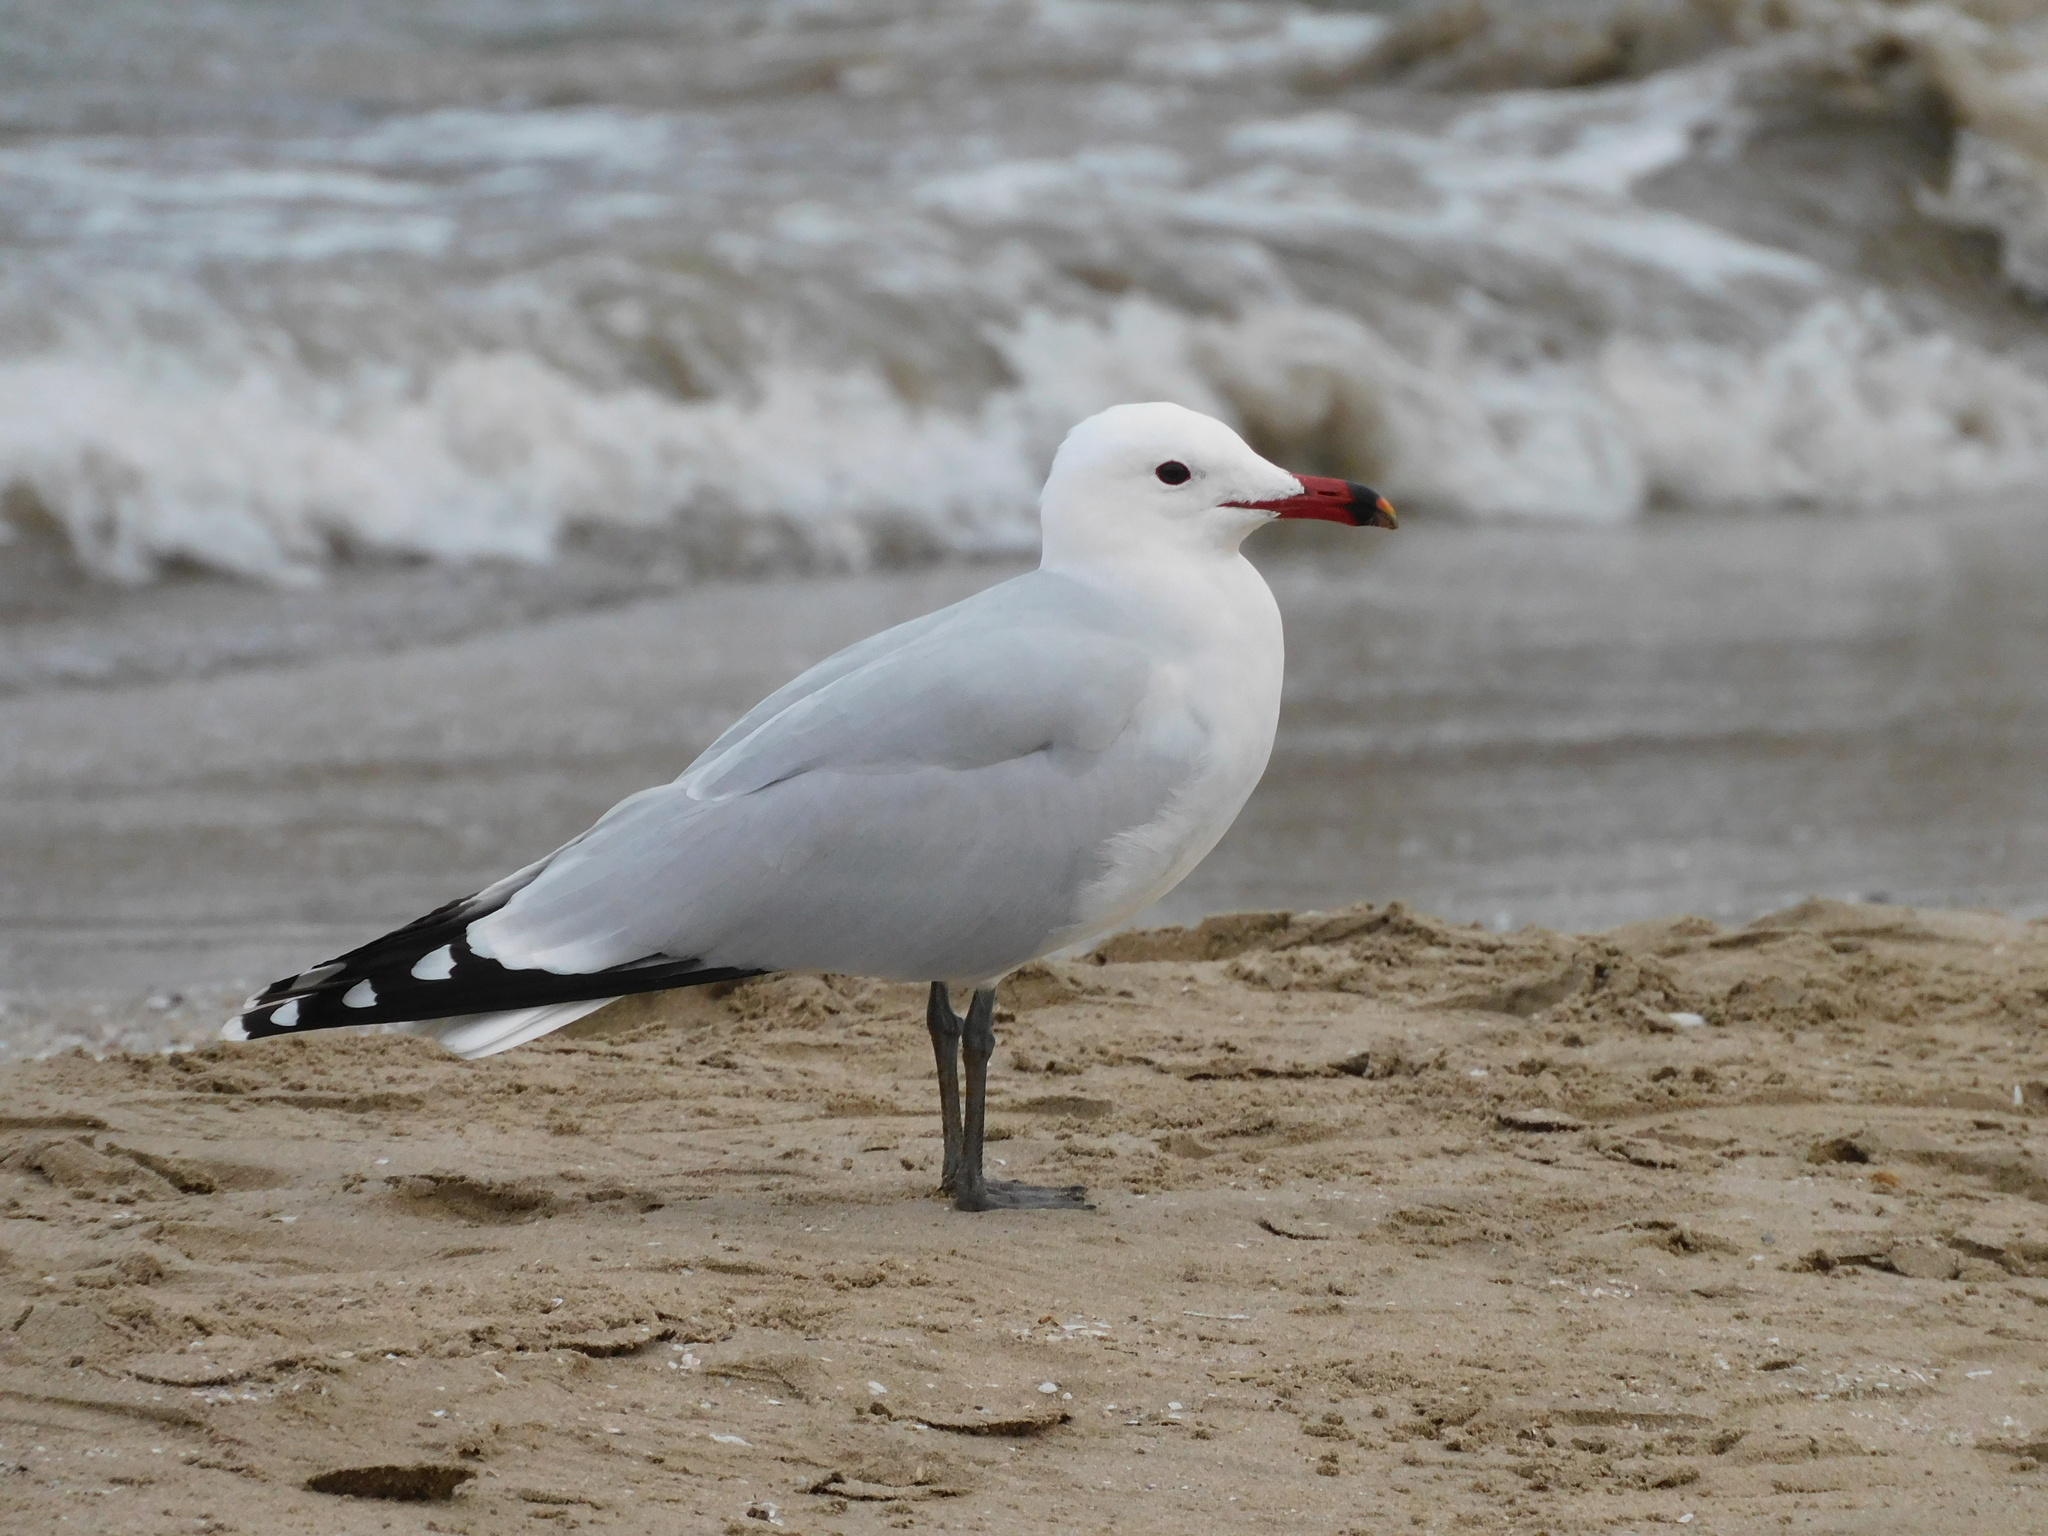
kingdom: Animalia
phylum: Chordata
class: Aves
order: Charadriiformes
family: Laridae
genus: Ichthyaetus
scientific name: Ichthyaetus audouinii
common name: Audouin's gull
